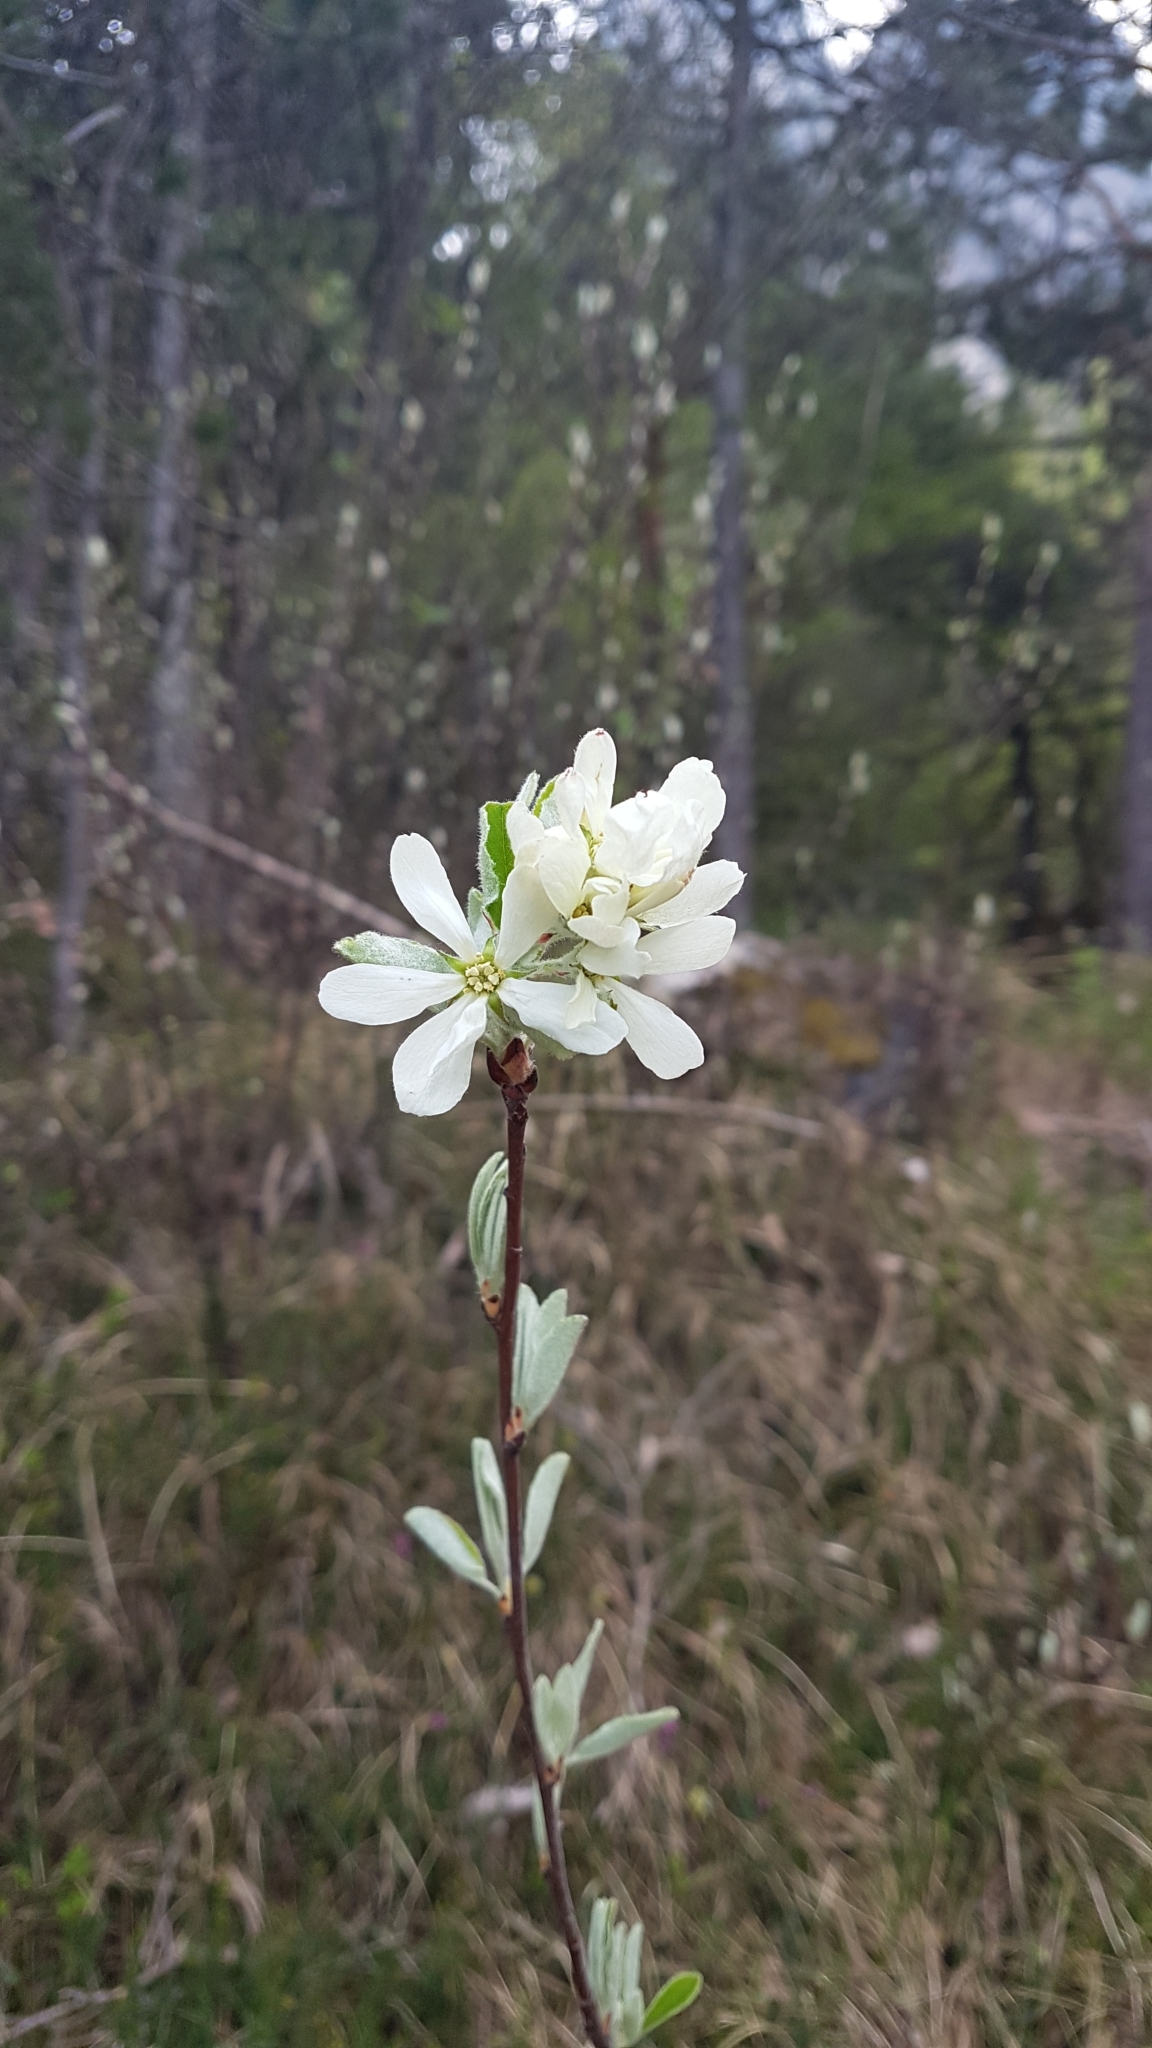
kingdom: Plantae
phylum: Tracheophyta
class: Magnoliopsida
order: Rosales
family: Rosaceae
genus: Amelanchier
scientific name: Amelanchier ovalis
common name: Serviceberry
